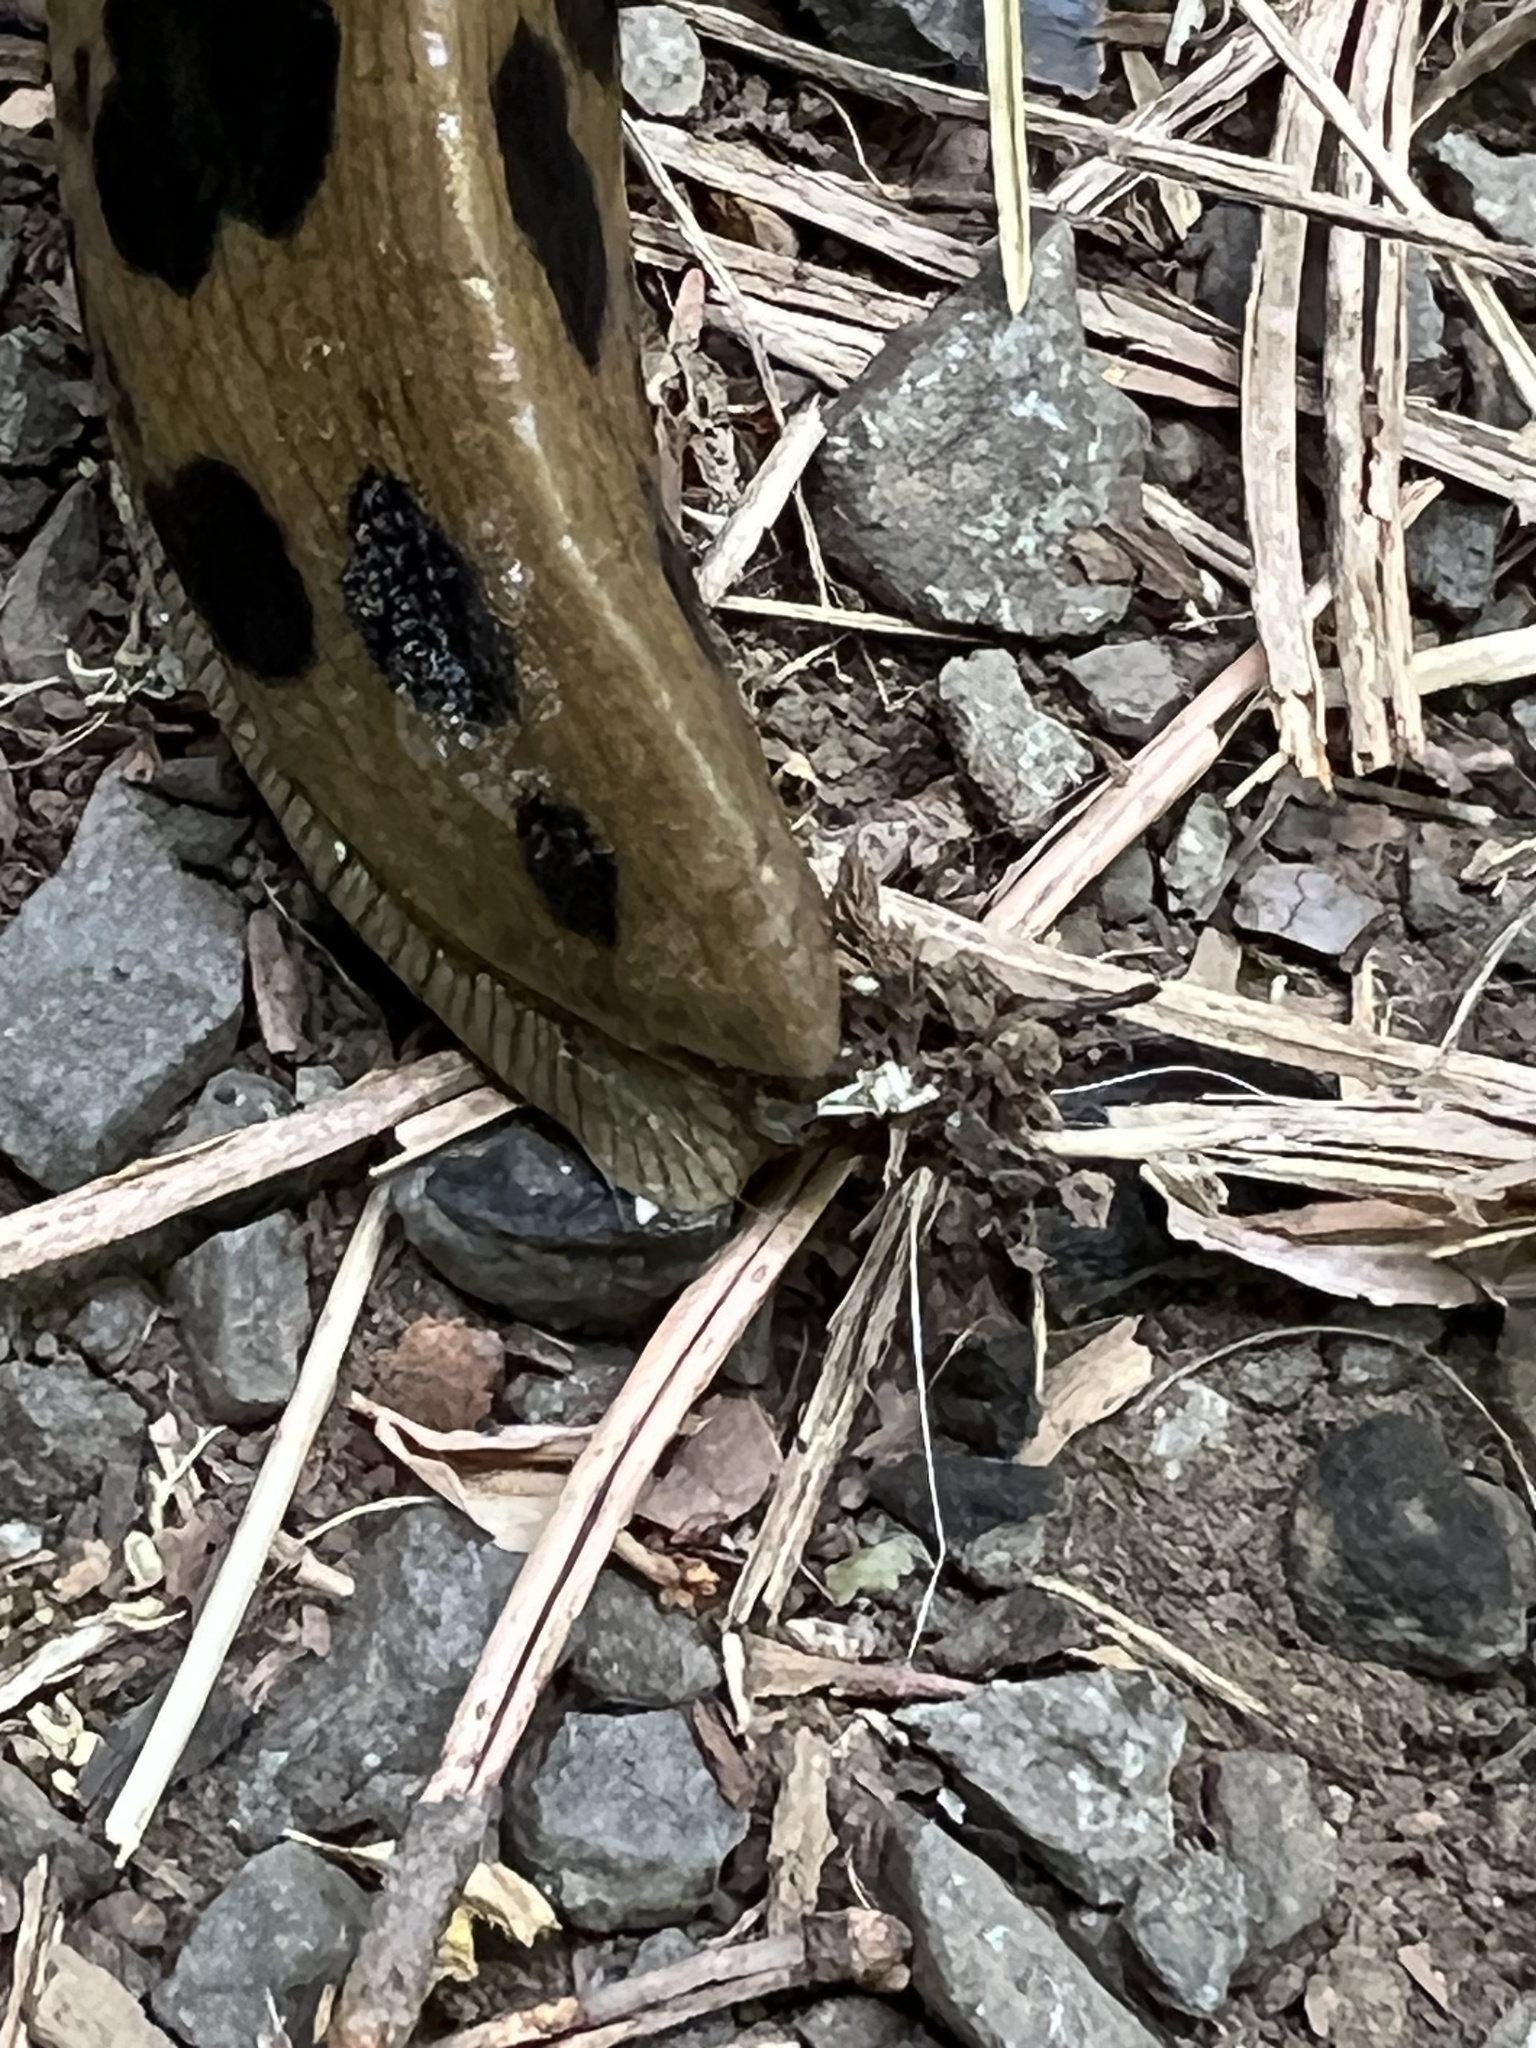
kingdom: Animalia
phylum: Mollusca
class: Gastropoda
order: Stylommatophora
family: Ariolimacidae
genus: Ariolimax
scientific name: Ariolimax columbianus
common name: Pacific banana slug
